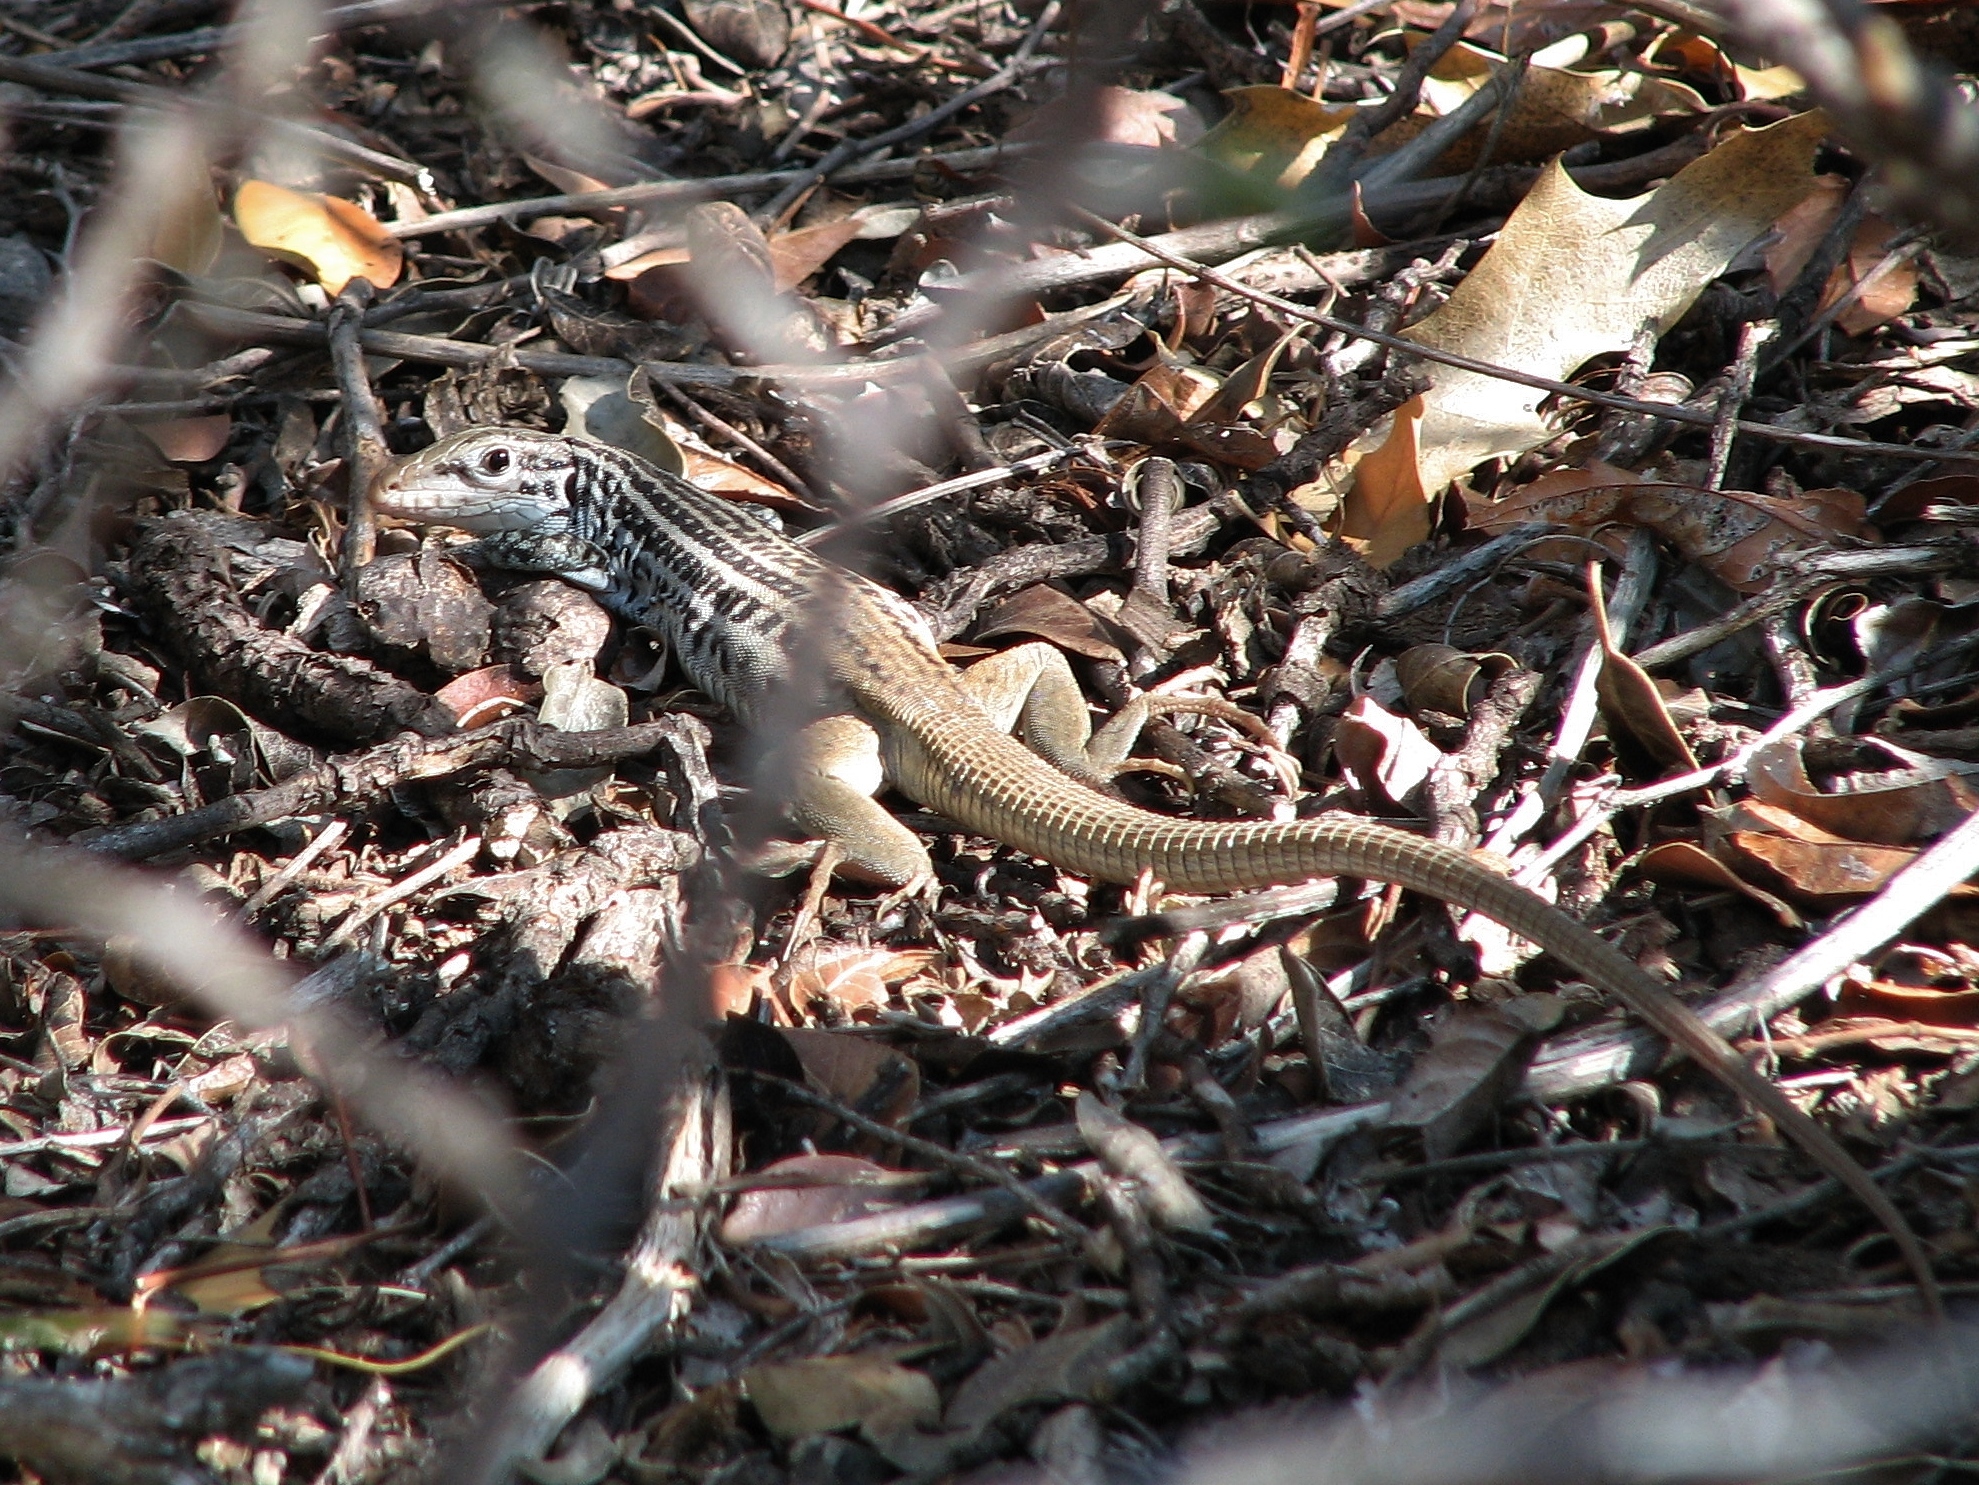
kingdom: Animalia
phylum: Chordata
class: Squamata
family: Teiidae
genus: Aspidoscelis
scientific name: Aspidoscelis scalaris
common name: Rusty-rumped whiptail
